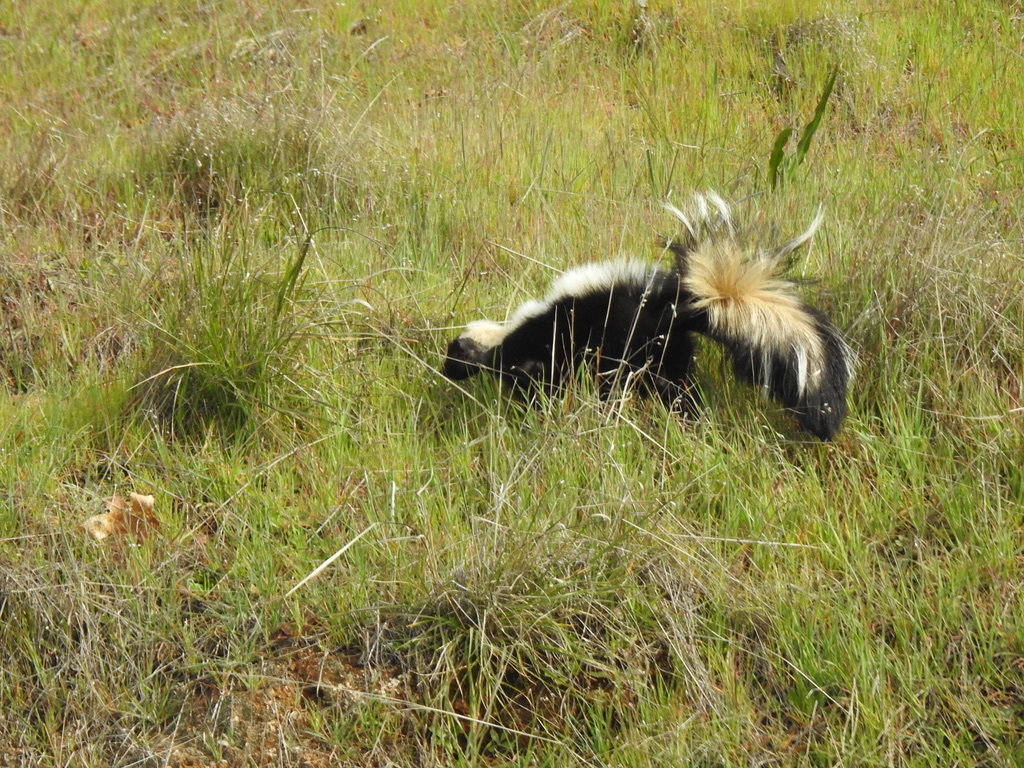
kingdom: Animalia
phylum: Chordata
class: Mammalia
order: Carnivora
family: Mephitidae
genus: Mephitis
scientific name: Mephitis mephitis
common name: Striped skunk
